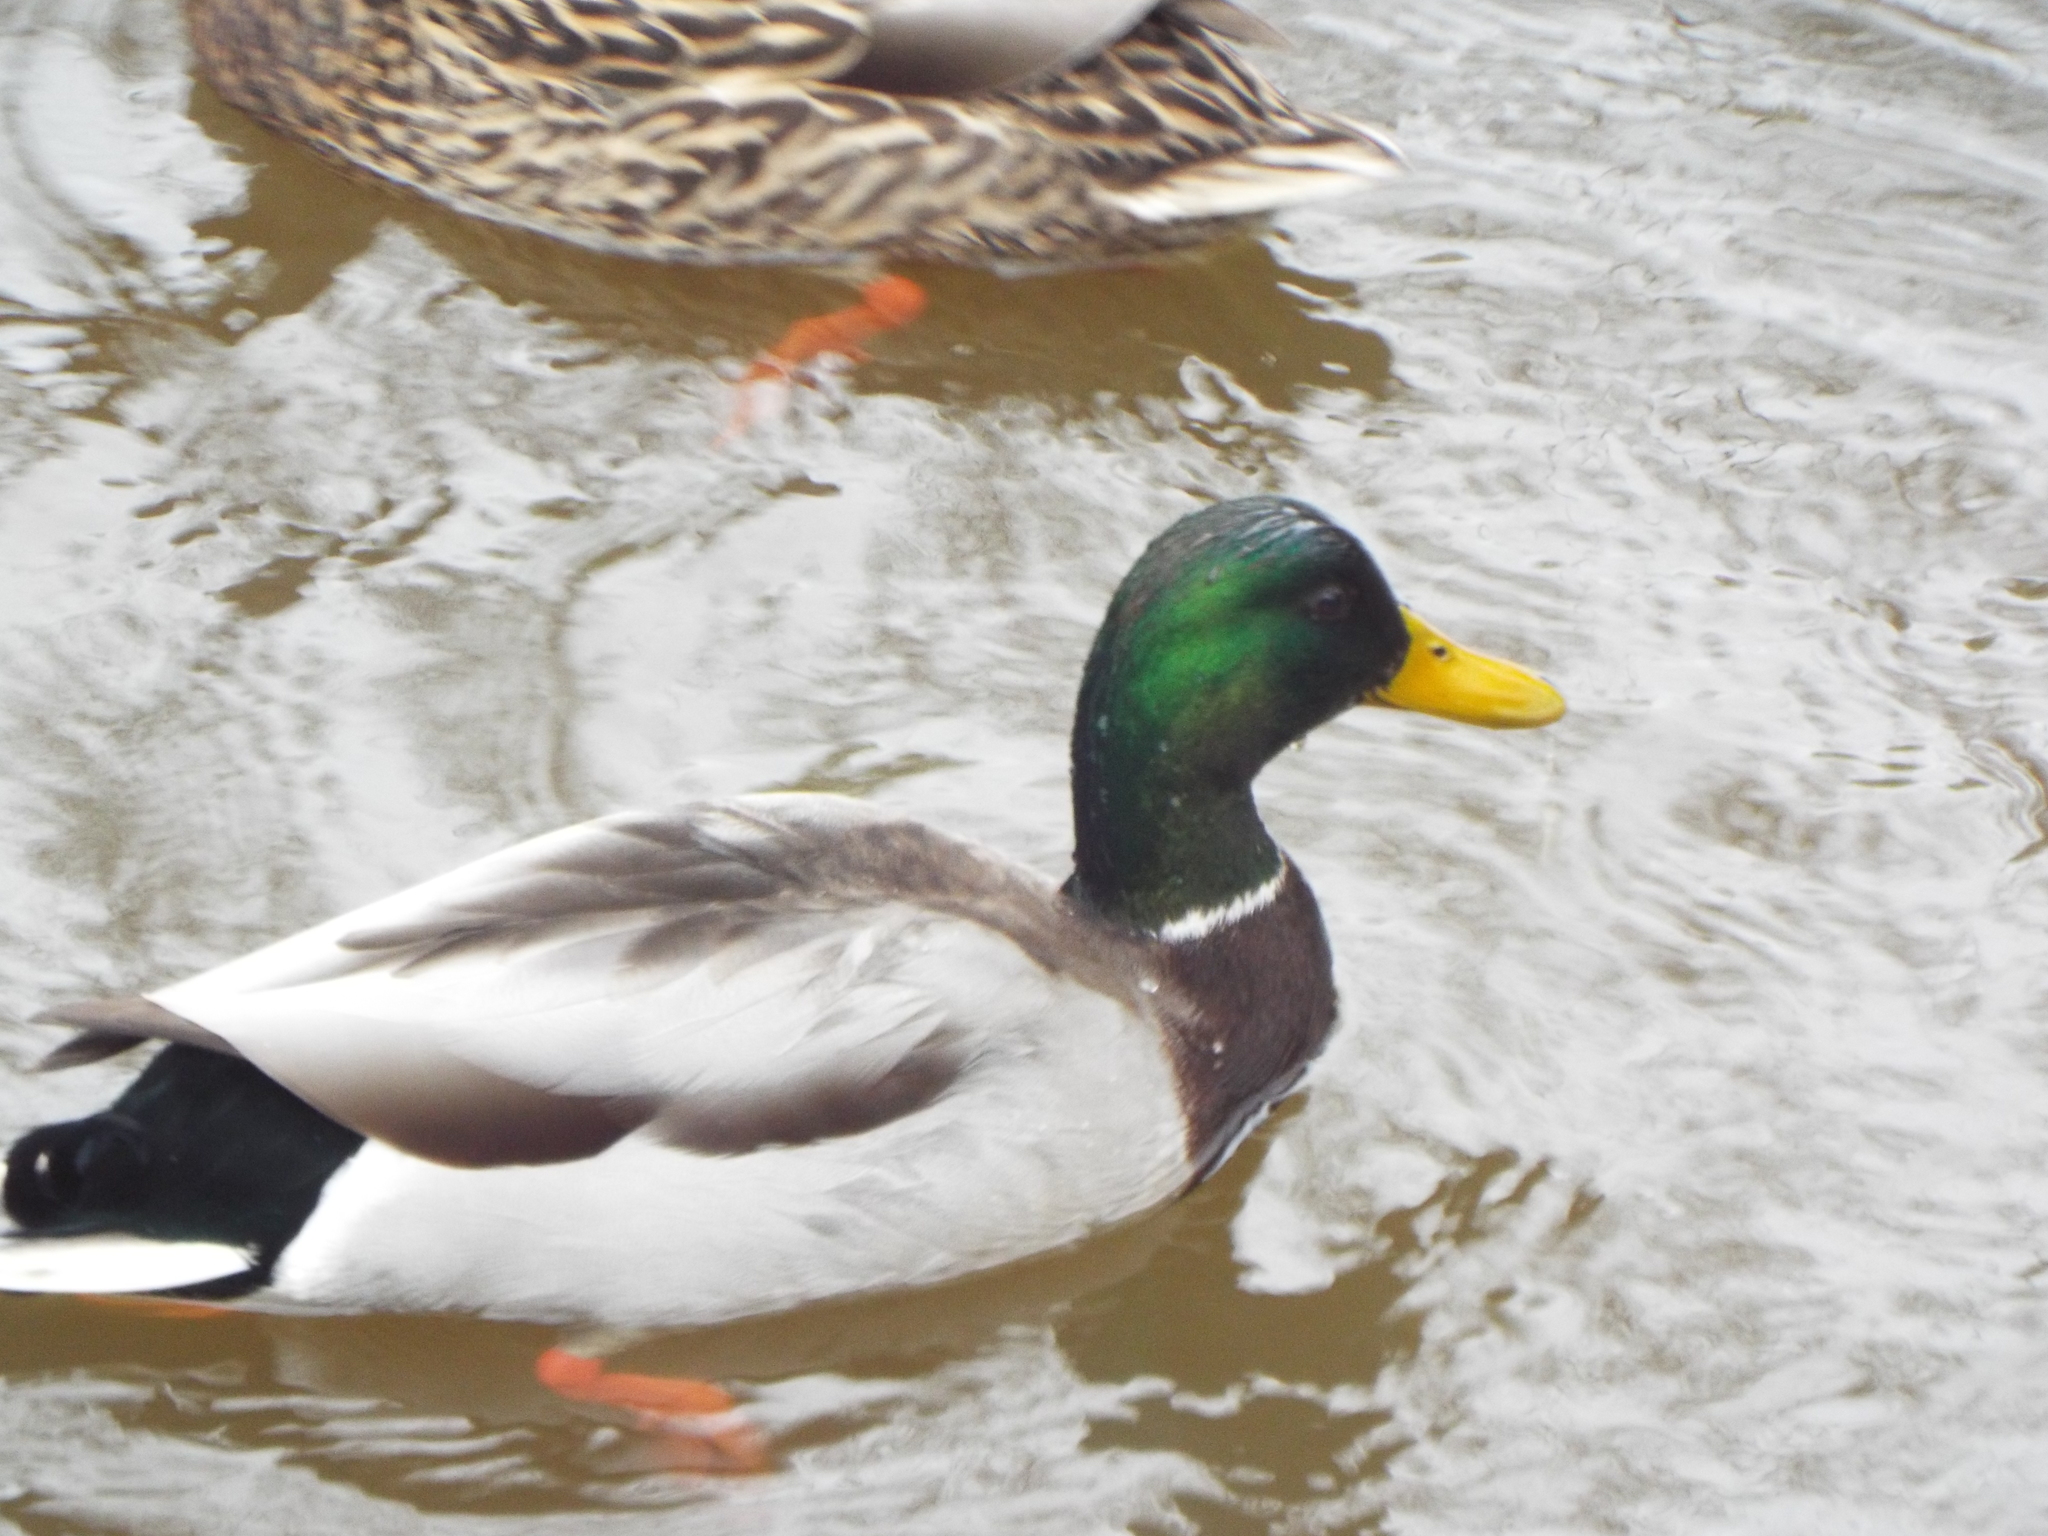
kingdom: Animalia
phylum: Chordata
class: Aves
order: Anseriformes
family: Anatidae
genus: Anas
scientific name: Anas platyrhynchos
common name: Mallard
